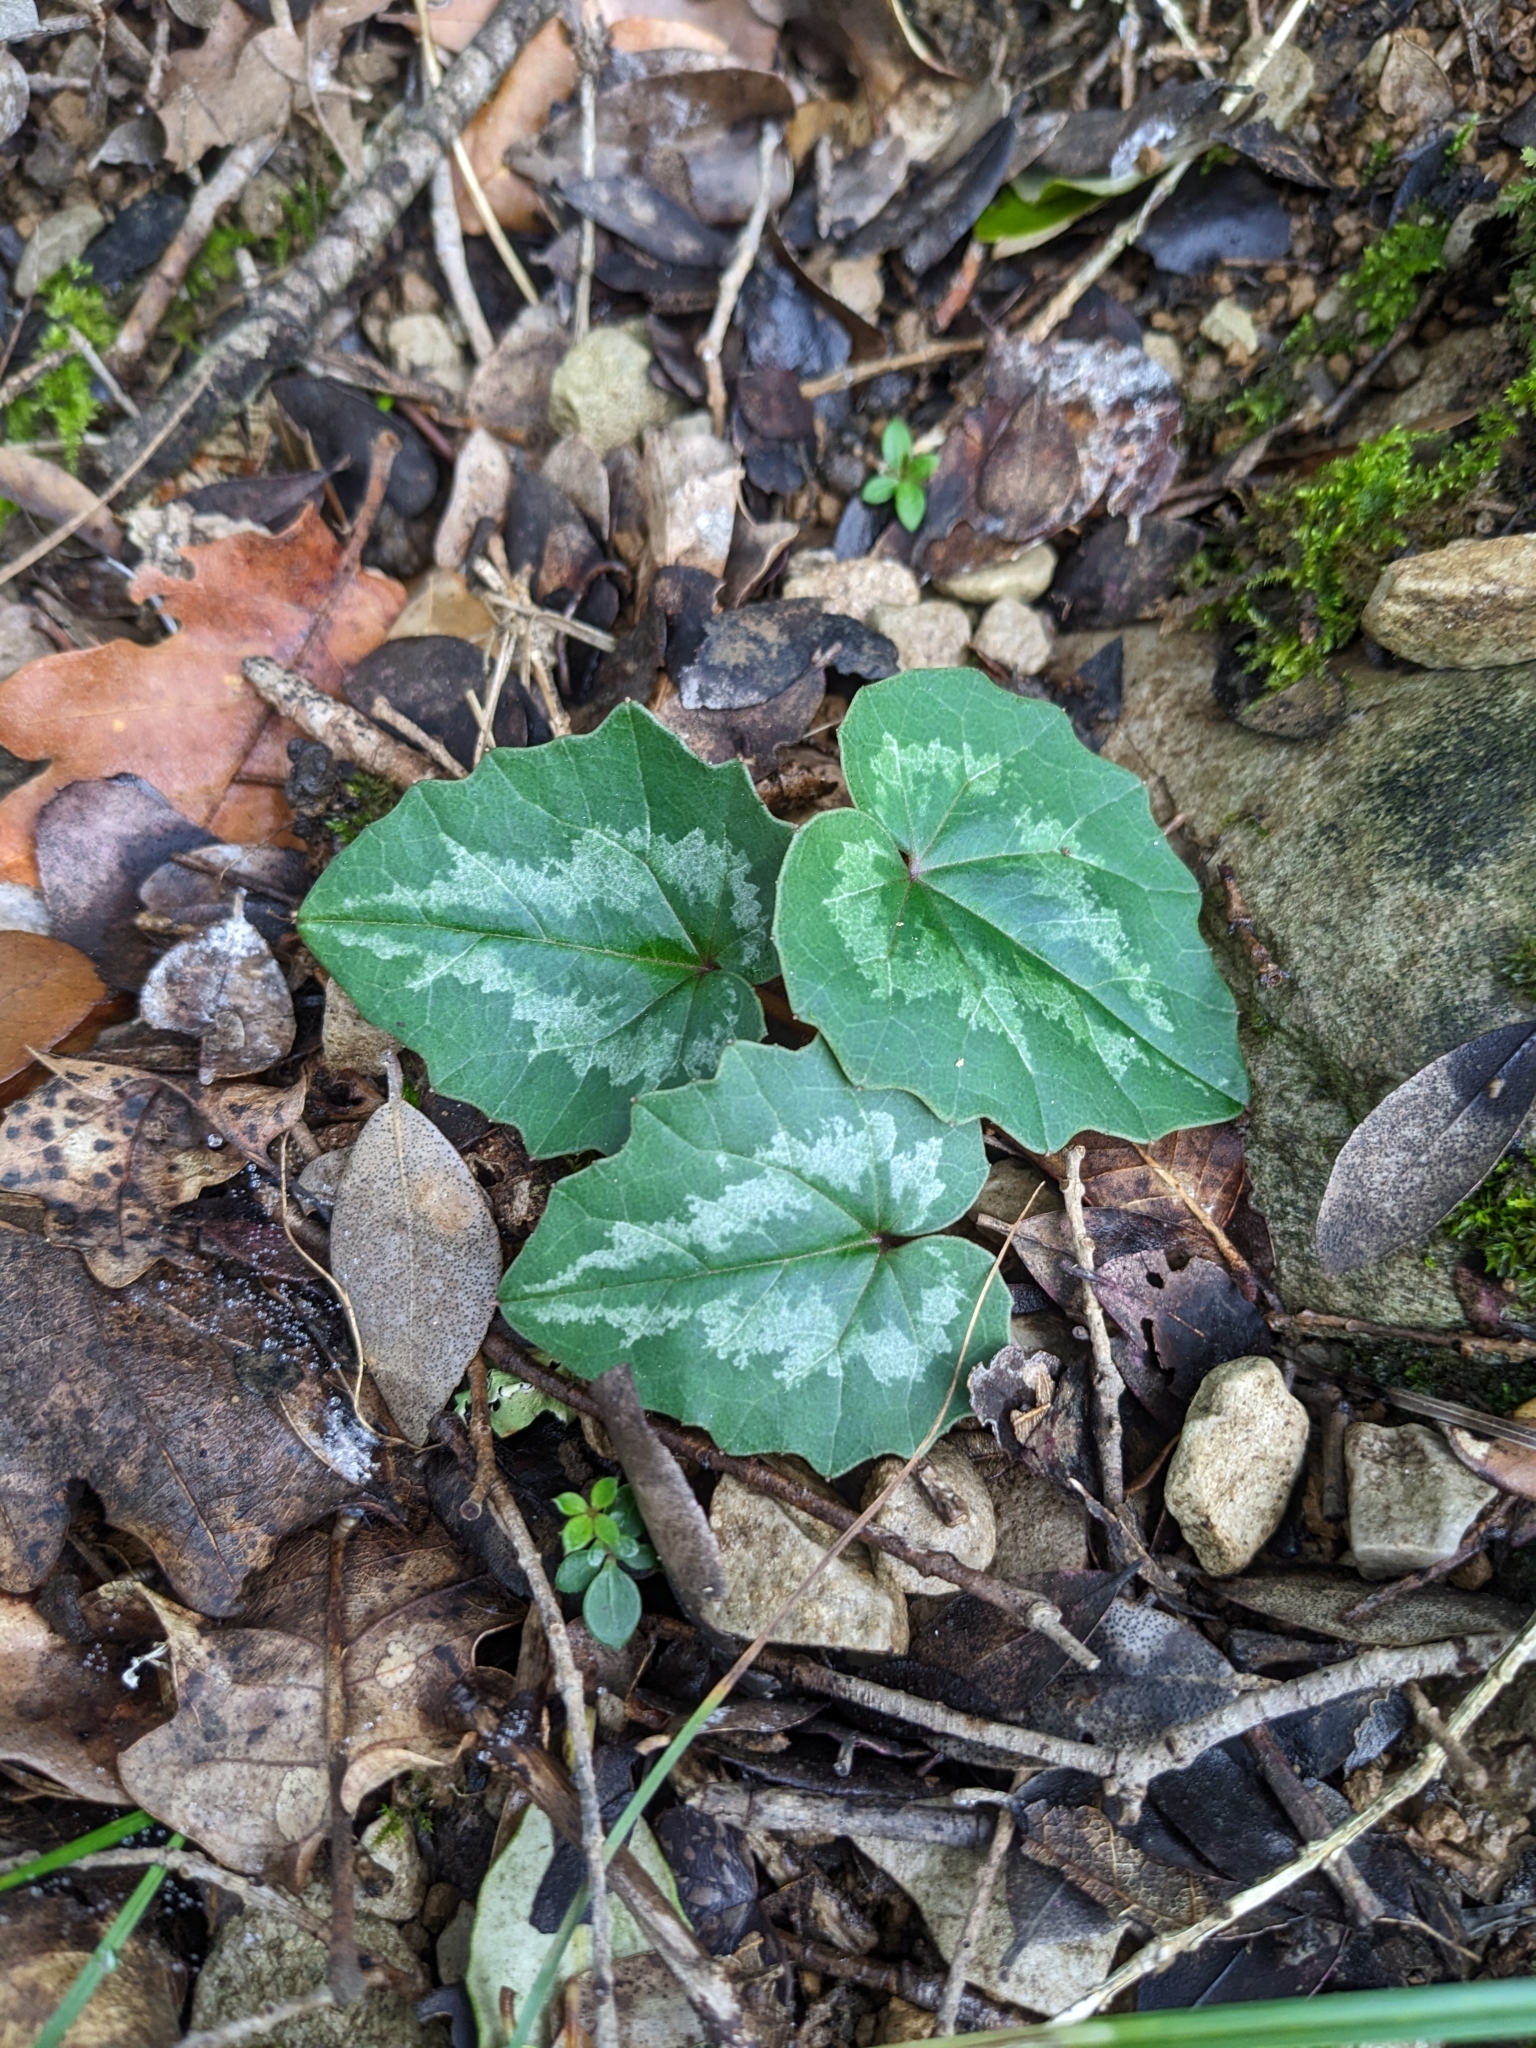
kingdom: Plantae
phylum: Tracheophyta
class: Magnoliopsida
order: Ericales
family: Primulaceae
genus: Cyclamen
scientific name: Cyclamen repandum
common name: Spring sowbread
